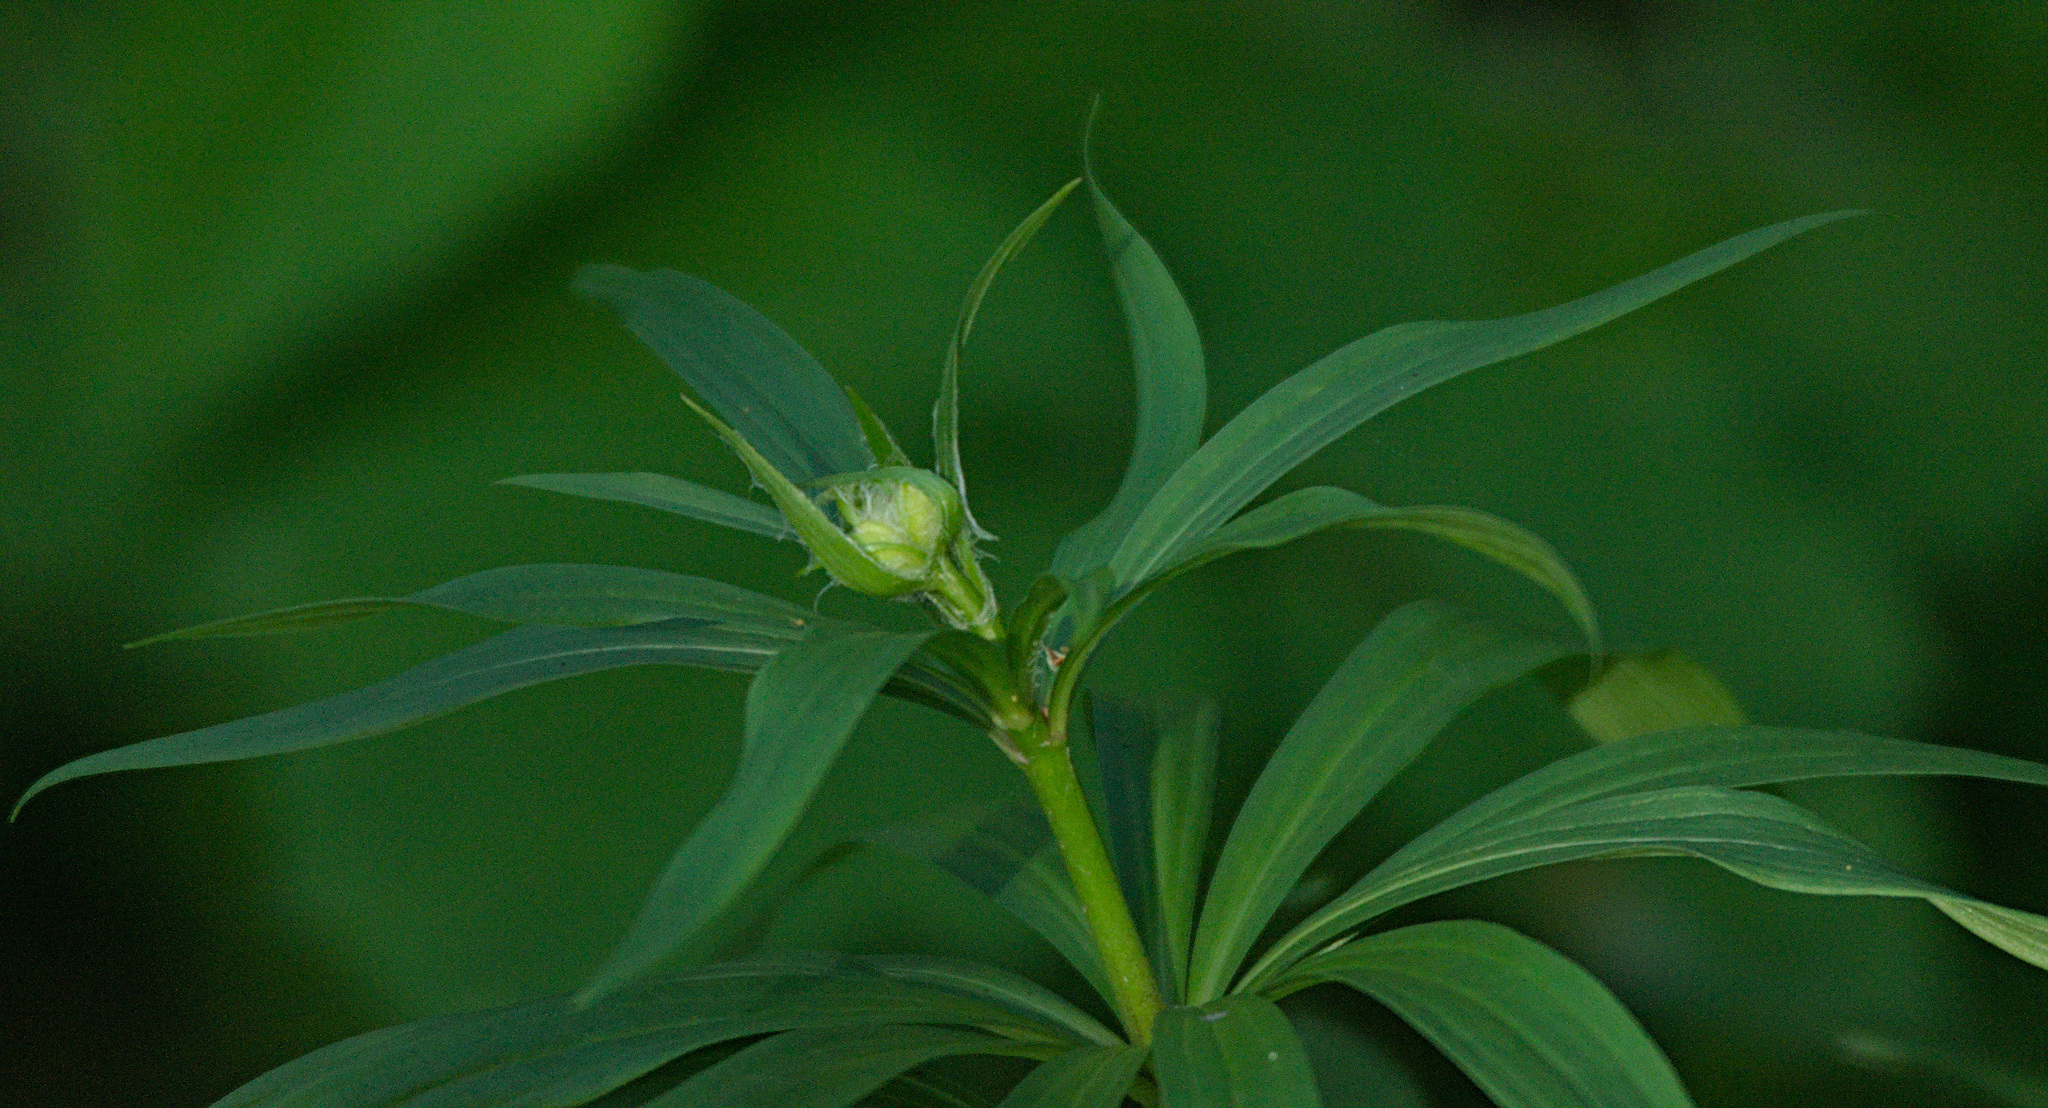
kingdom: Plantae
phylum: Tracheophyta
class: Liliopsida
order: Liliales
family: Liliaceae
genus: Lilium
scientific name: Lilium martagon
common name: Martagon lily
